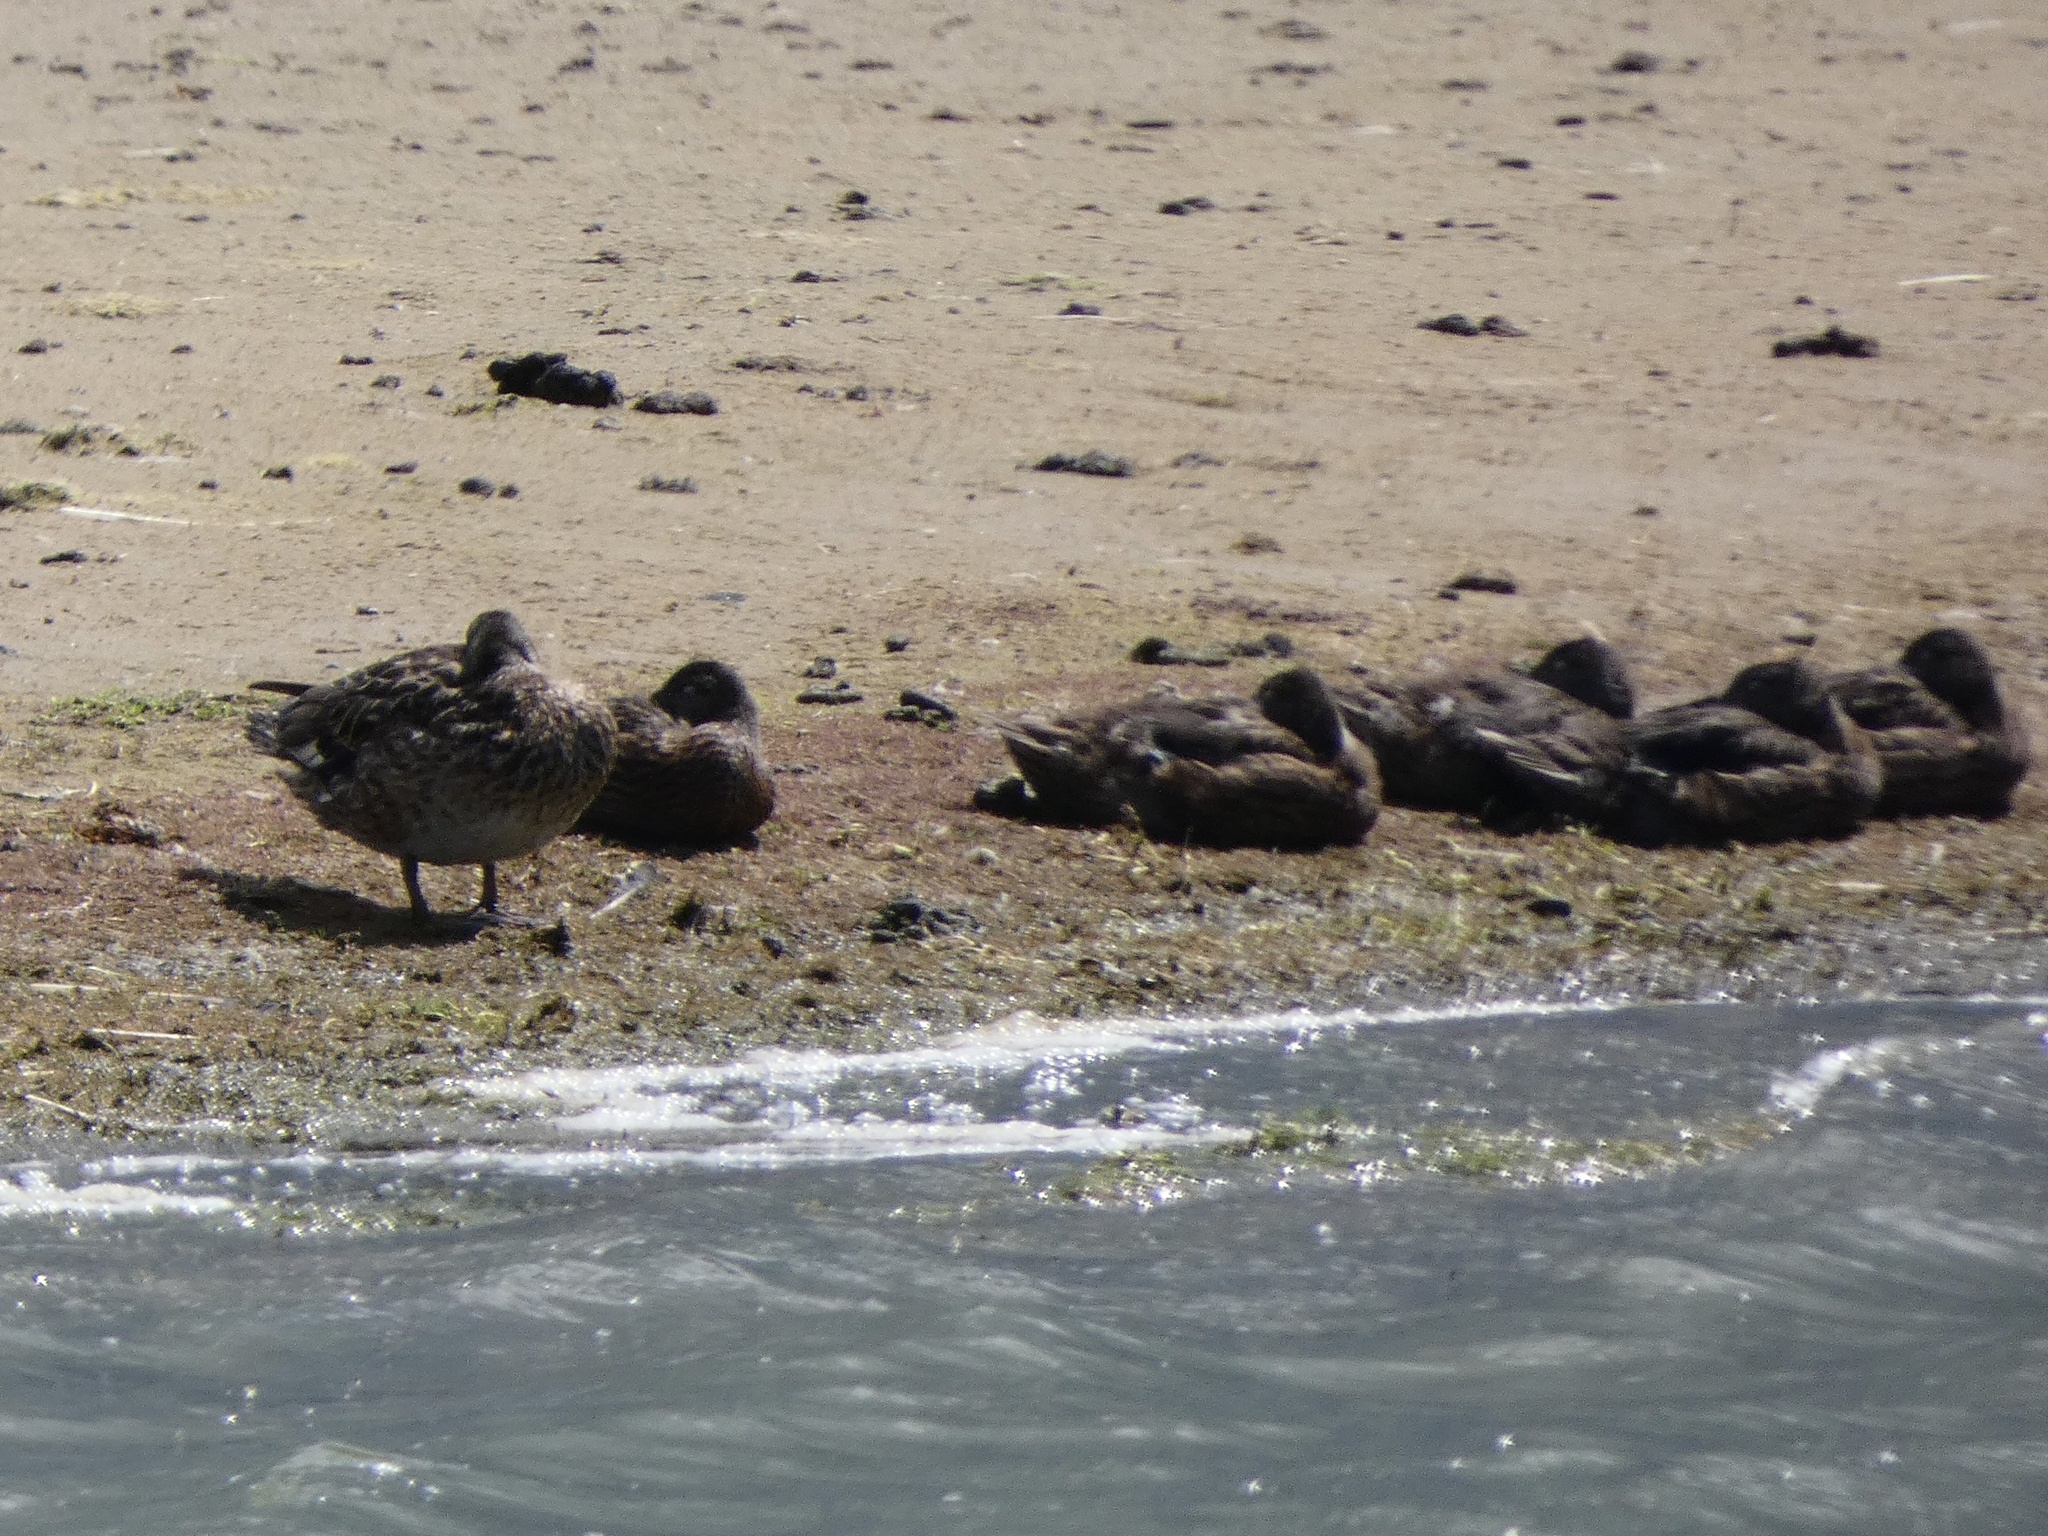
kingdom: Animalia
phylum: Chordata
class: Aves
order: Anseriformes
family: Anatidae
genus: Mareca
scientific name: Mareca strepera
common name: Gadwall
